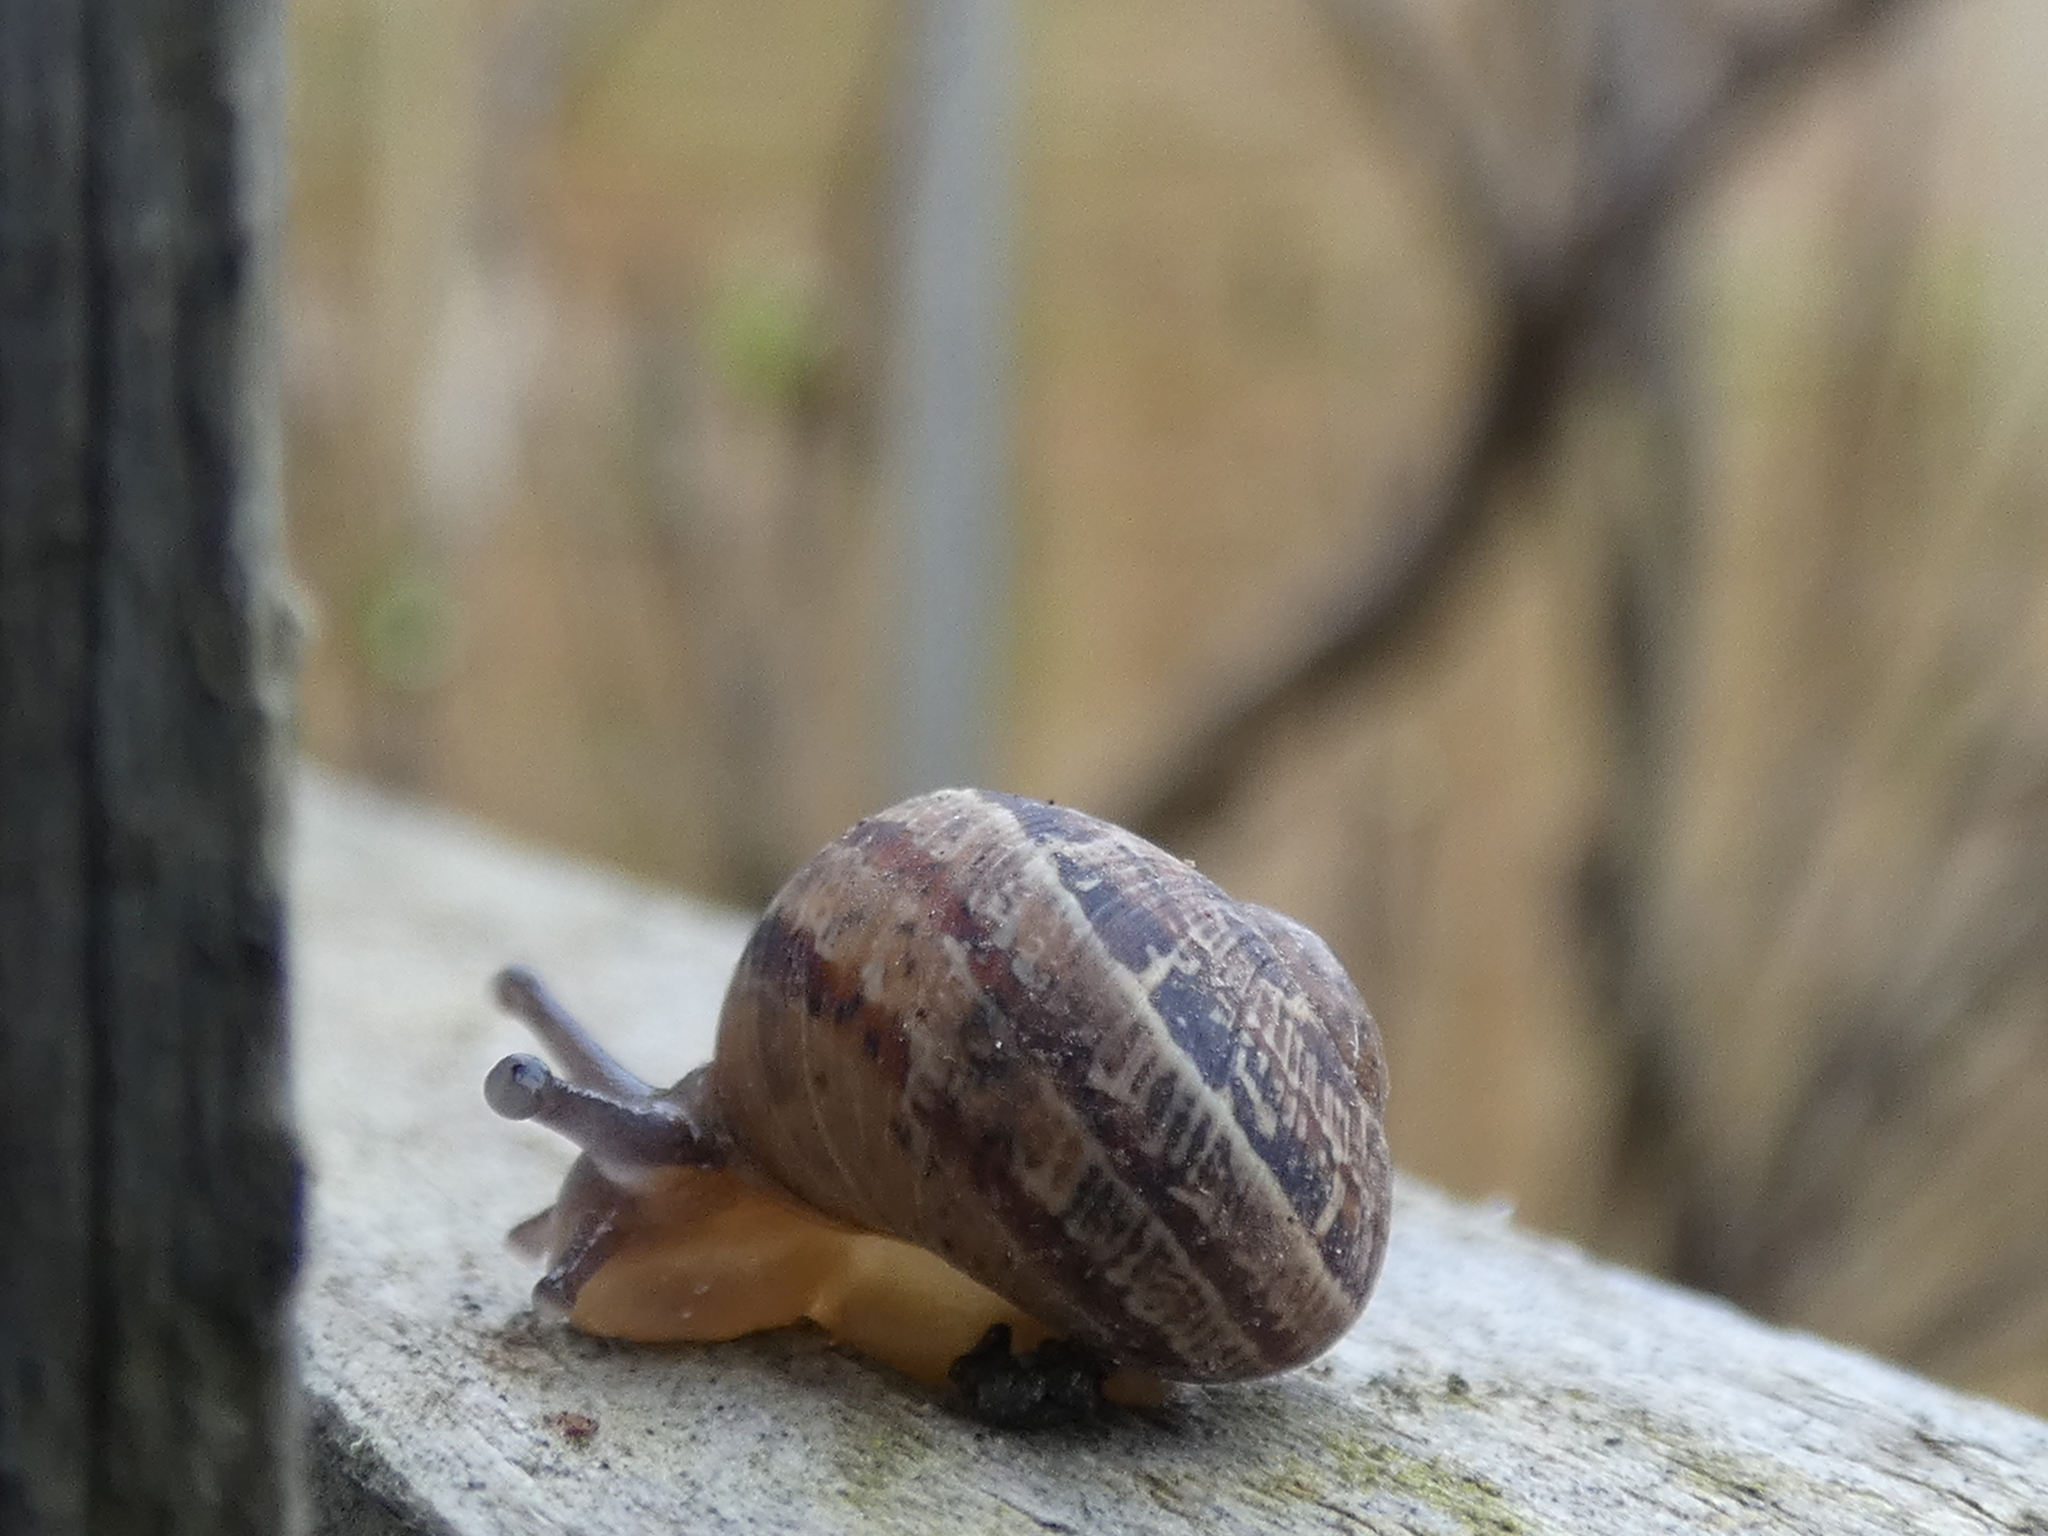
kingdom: Animalia
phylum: Mollusca
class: Gastropoda
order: Stylommatophora
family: Helicidae
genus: Cornu
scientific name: Cornu aspersum
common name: Brown garden snail
